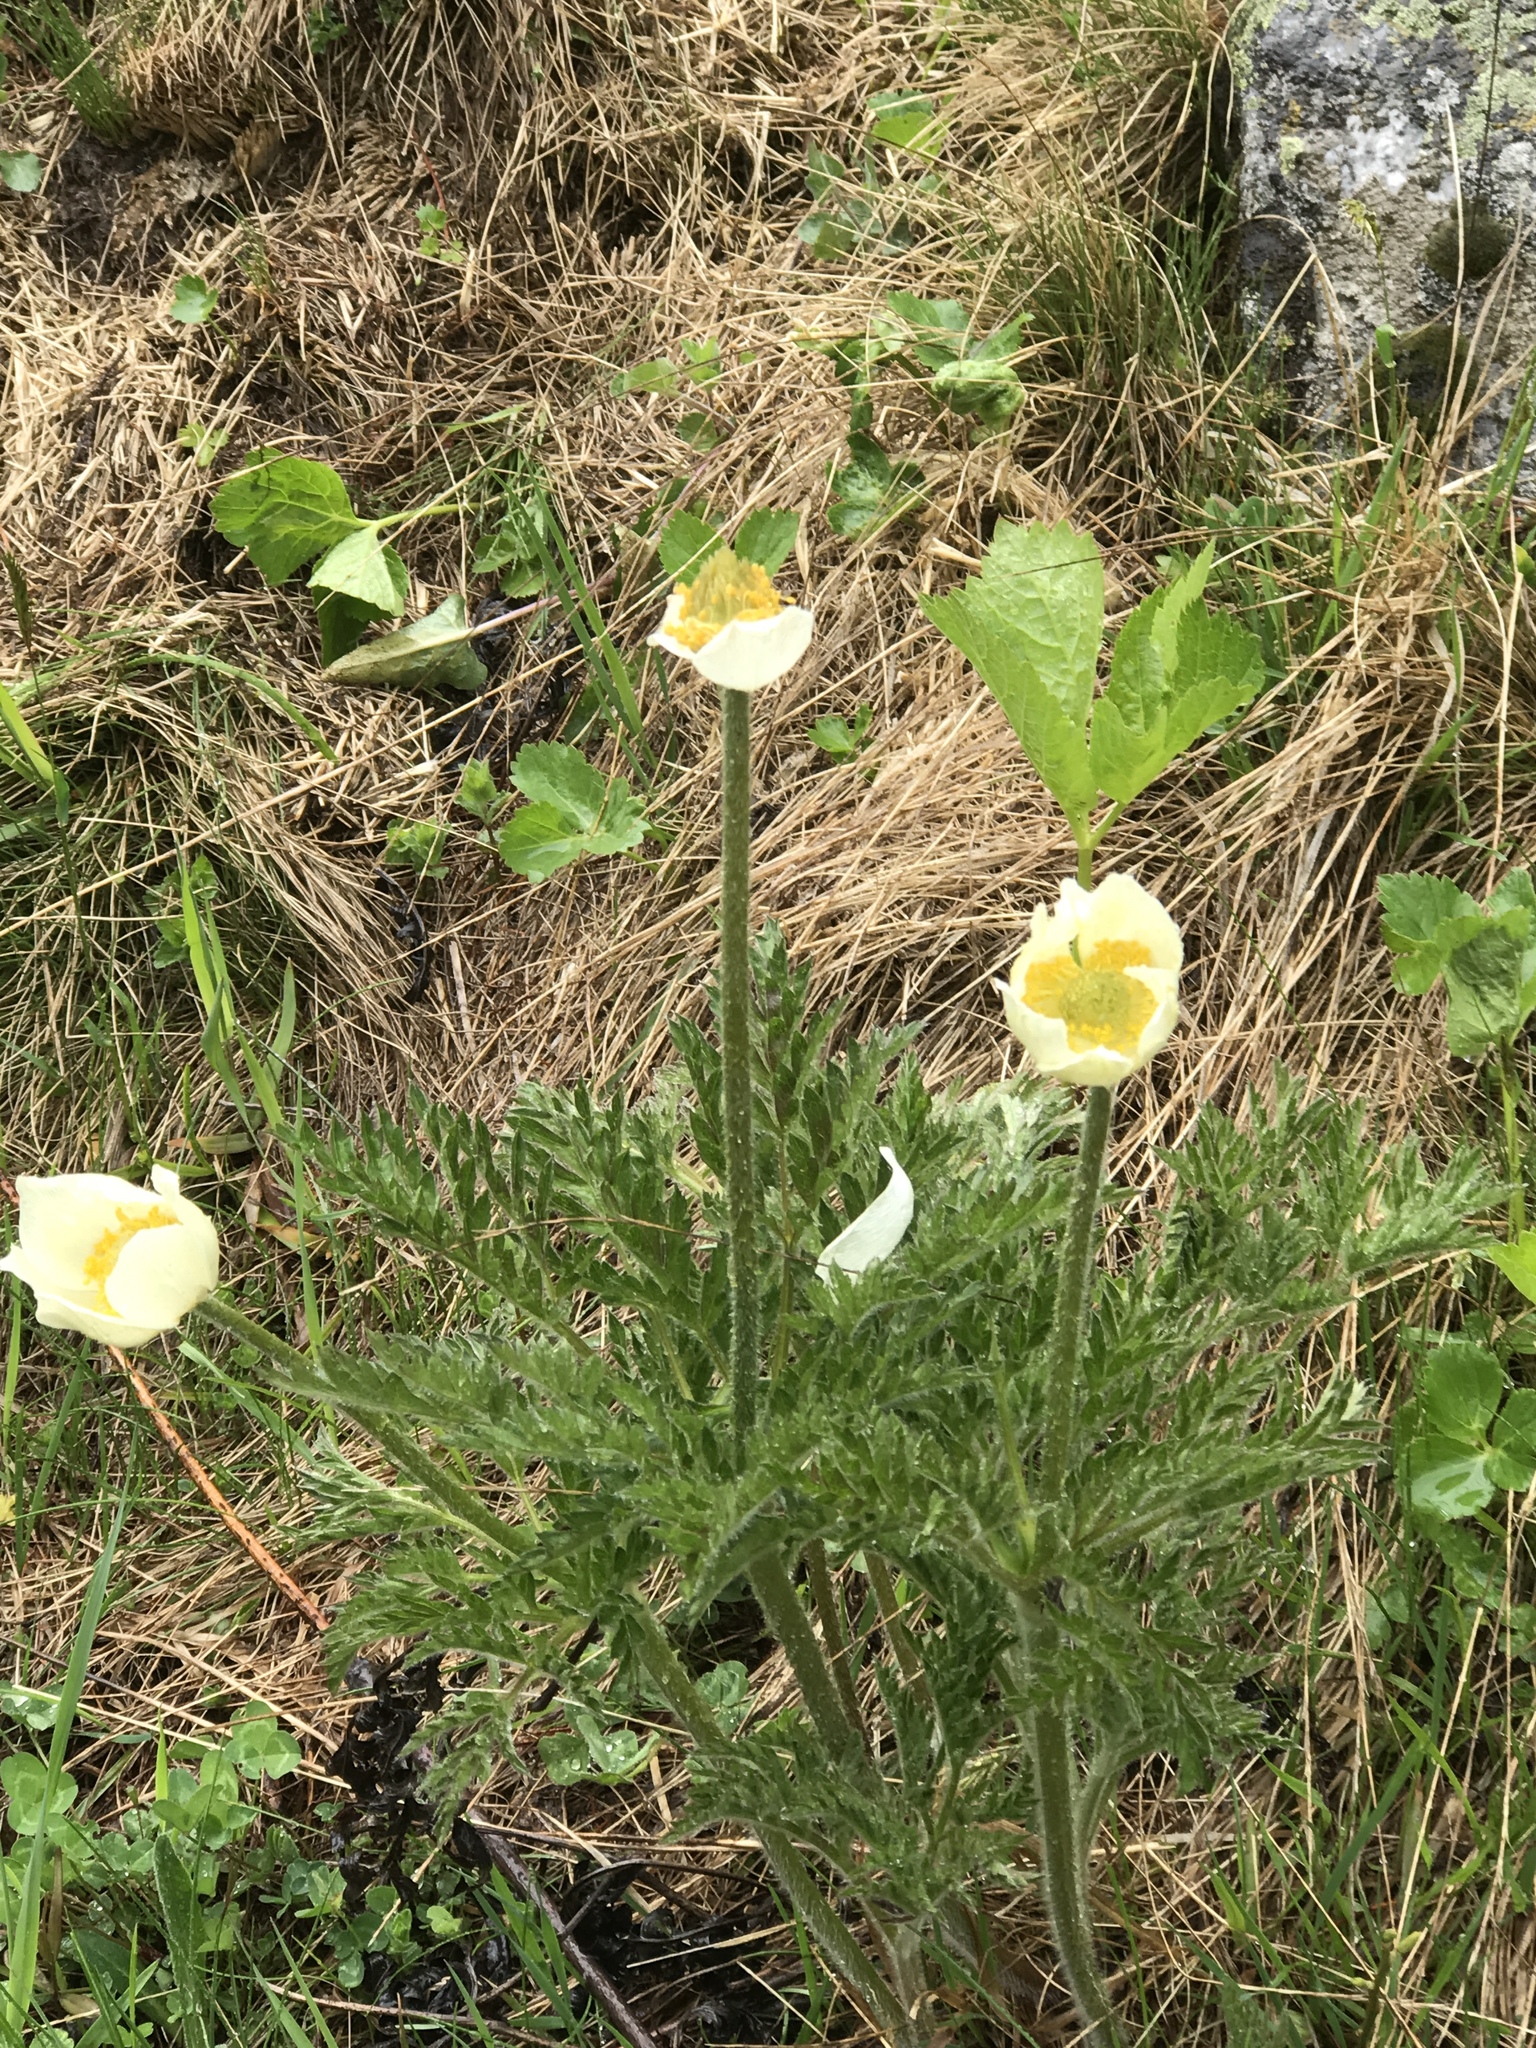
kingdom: Plantae
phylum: Tracheophyta
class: Magnoliopsida
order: Ranunculales
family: Ranunculaceae
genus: Pulsatilla
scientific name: Pulsatilla alpina
